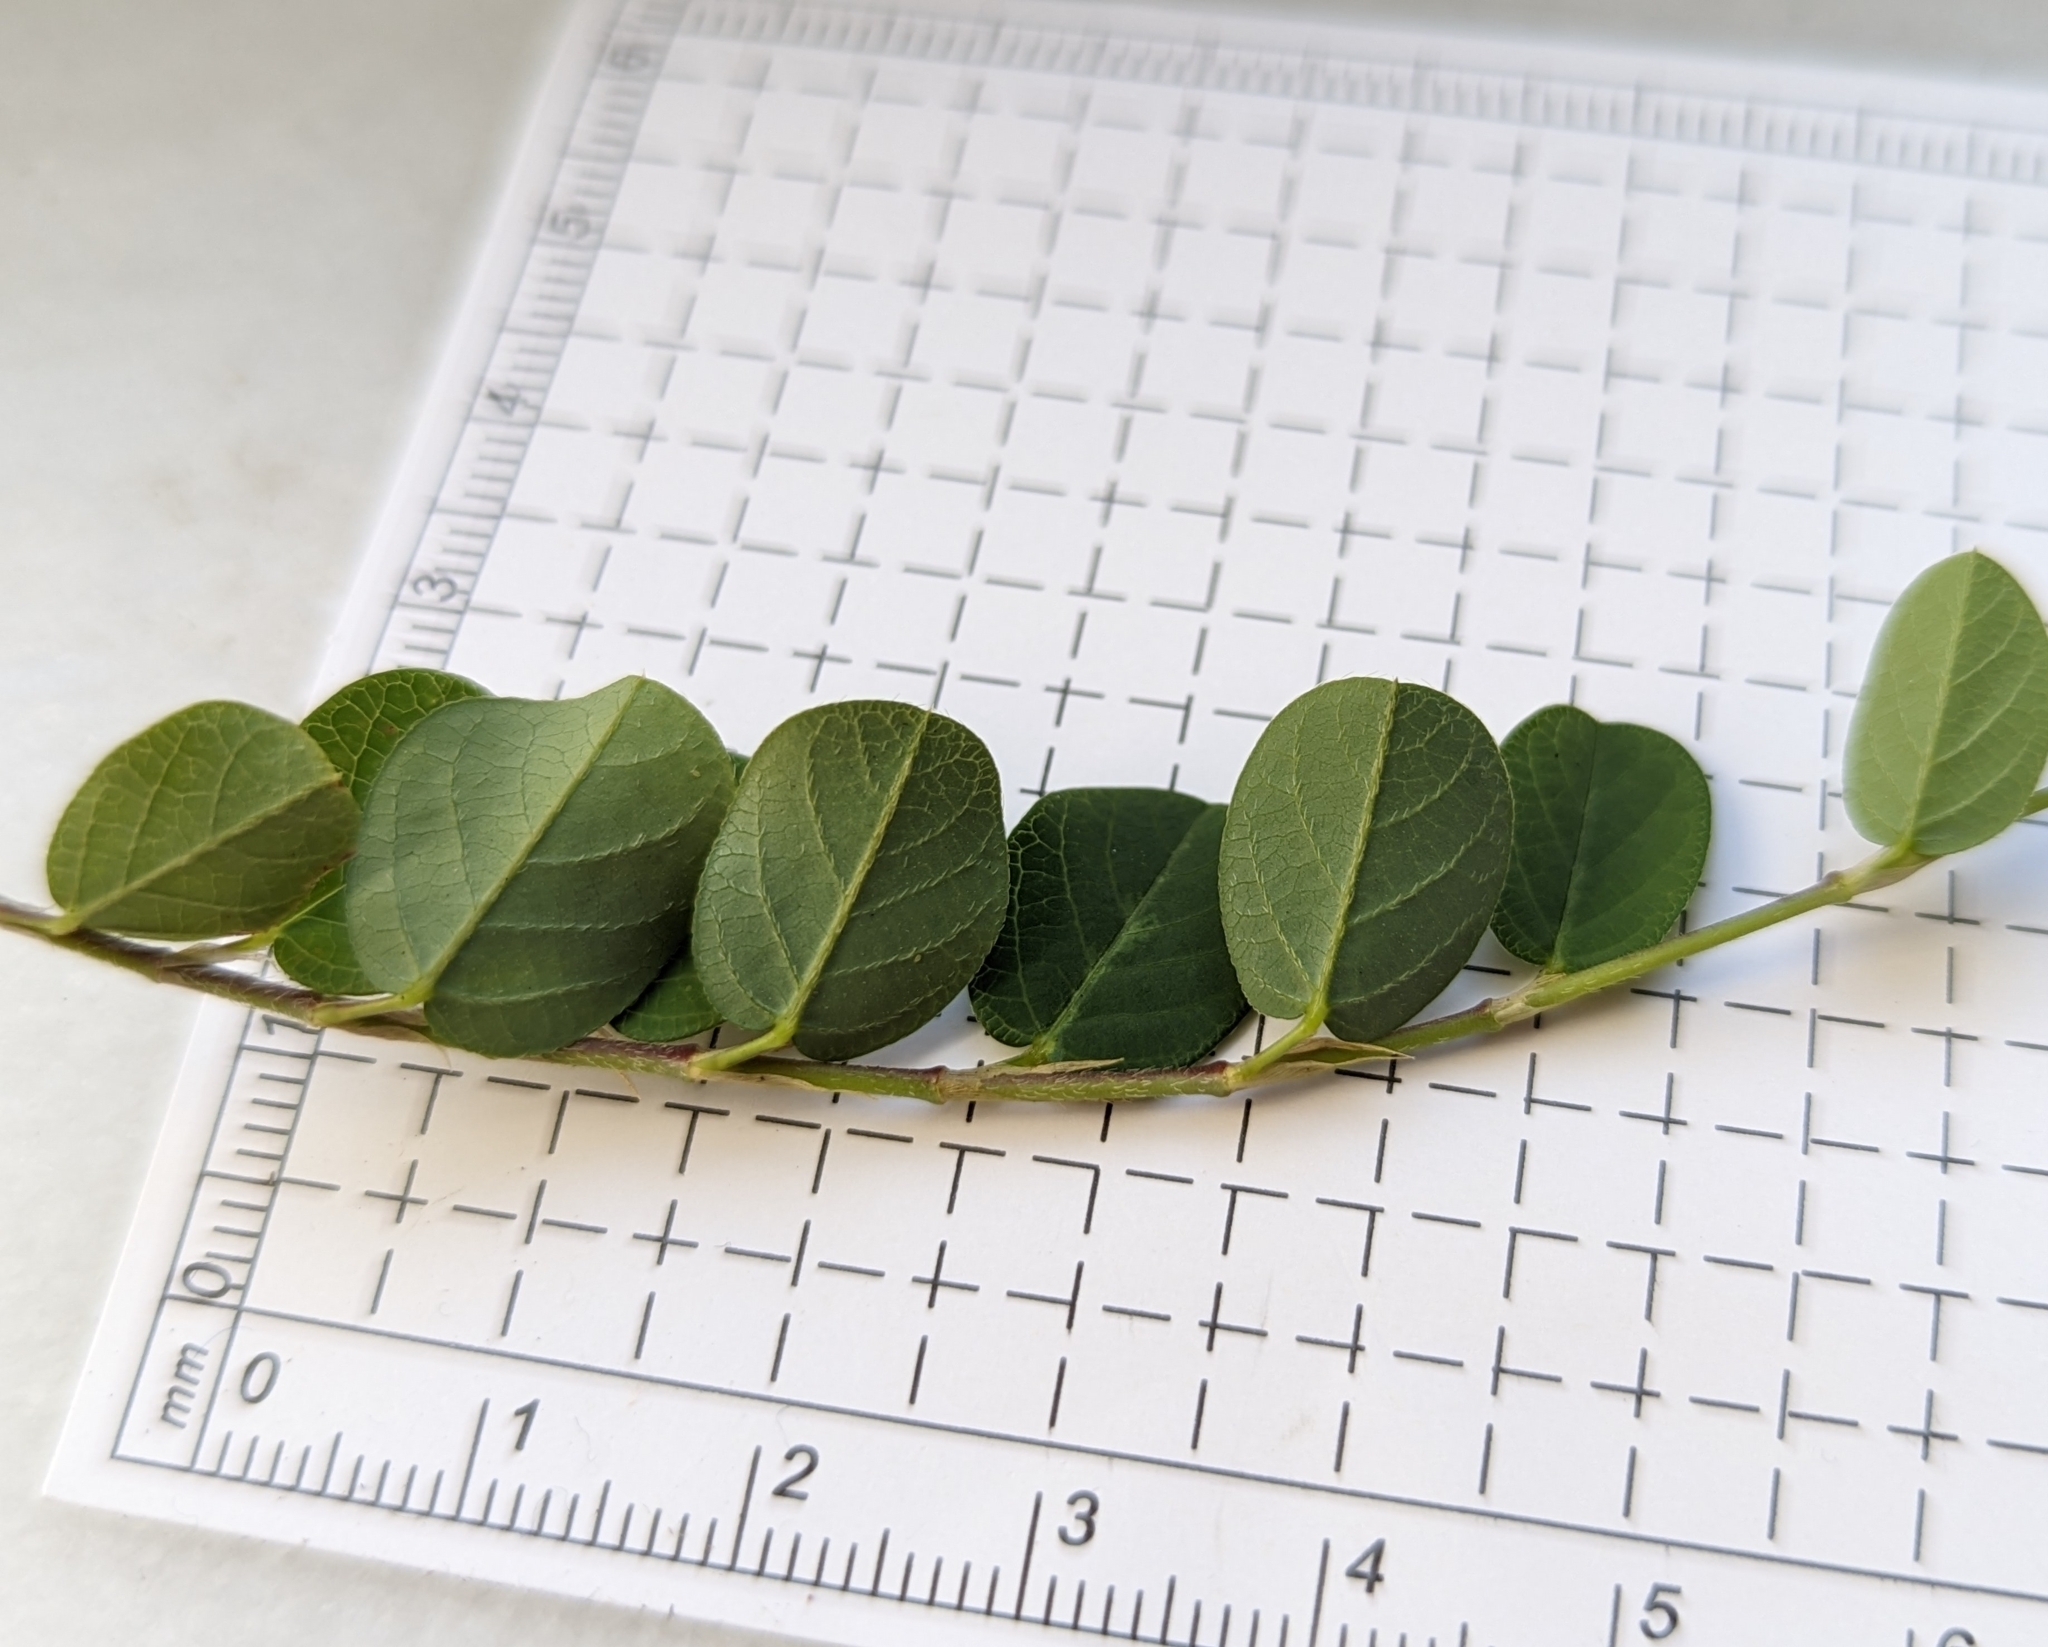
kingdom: Plantae
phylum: Tracheophyta
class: Magnoliopsida
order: Fabales
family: Fabaceae
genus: Alysicarpus
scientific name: Alysicarpus ovalifolius
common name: Alyce clover
